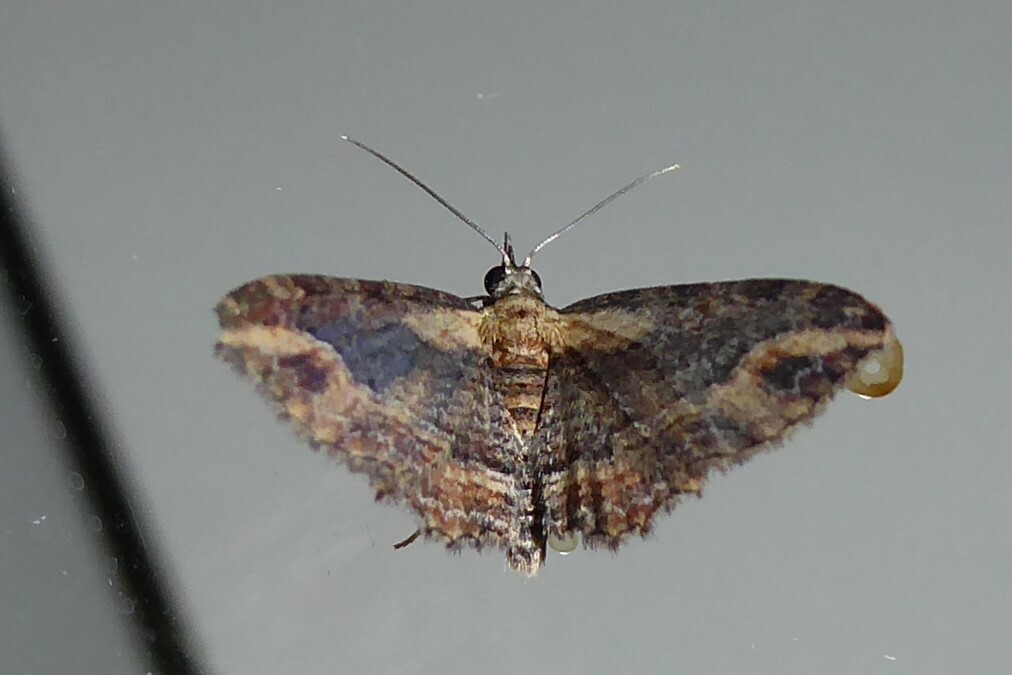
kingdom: Animalia
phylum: Arthropoda
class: Insecta
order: Lepidoptera
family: Geometridae
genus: Chloroclystis
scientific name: Chloroclystis filata
